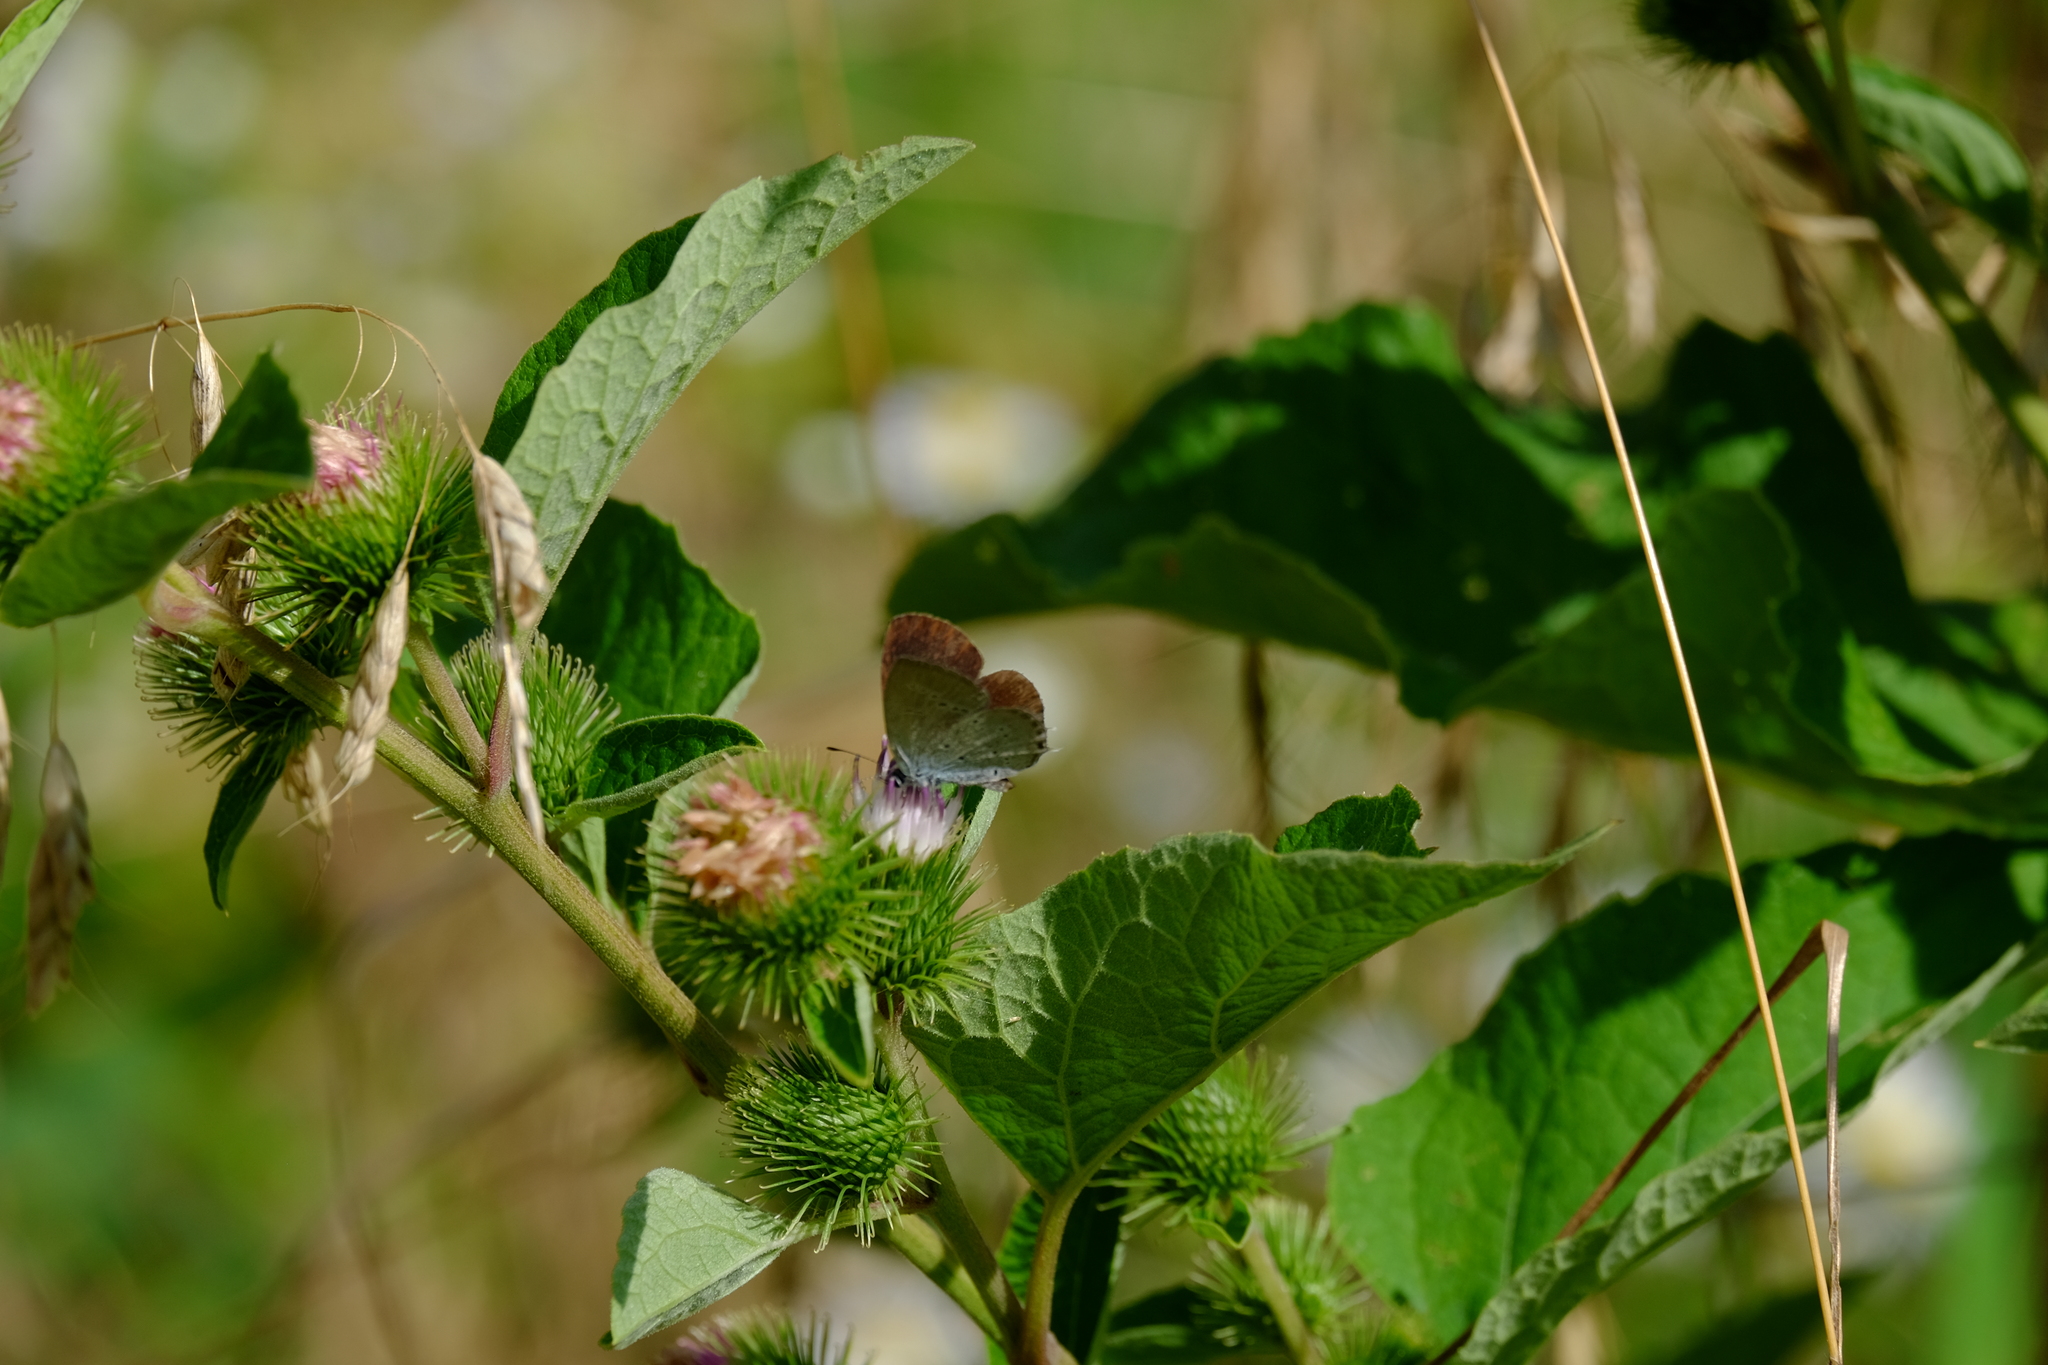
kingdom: Animalia
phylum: Arthropoda
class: Insecta
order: Lepidoptera
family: Lycaenidae
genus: Elkalyce
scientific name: Elkalyce decolorata
